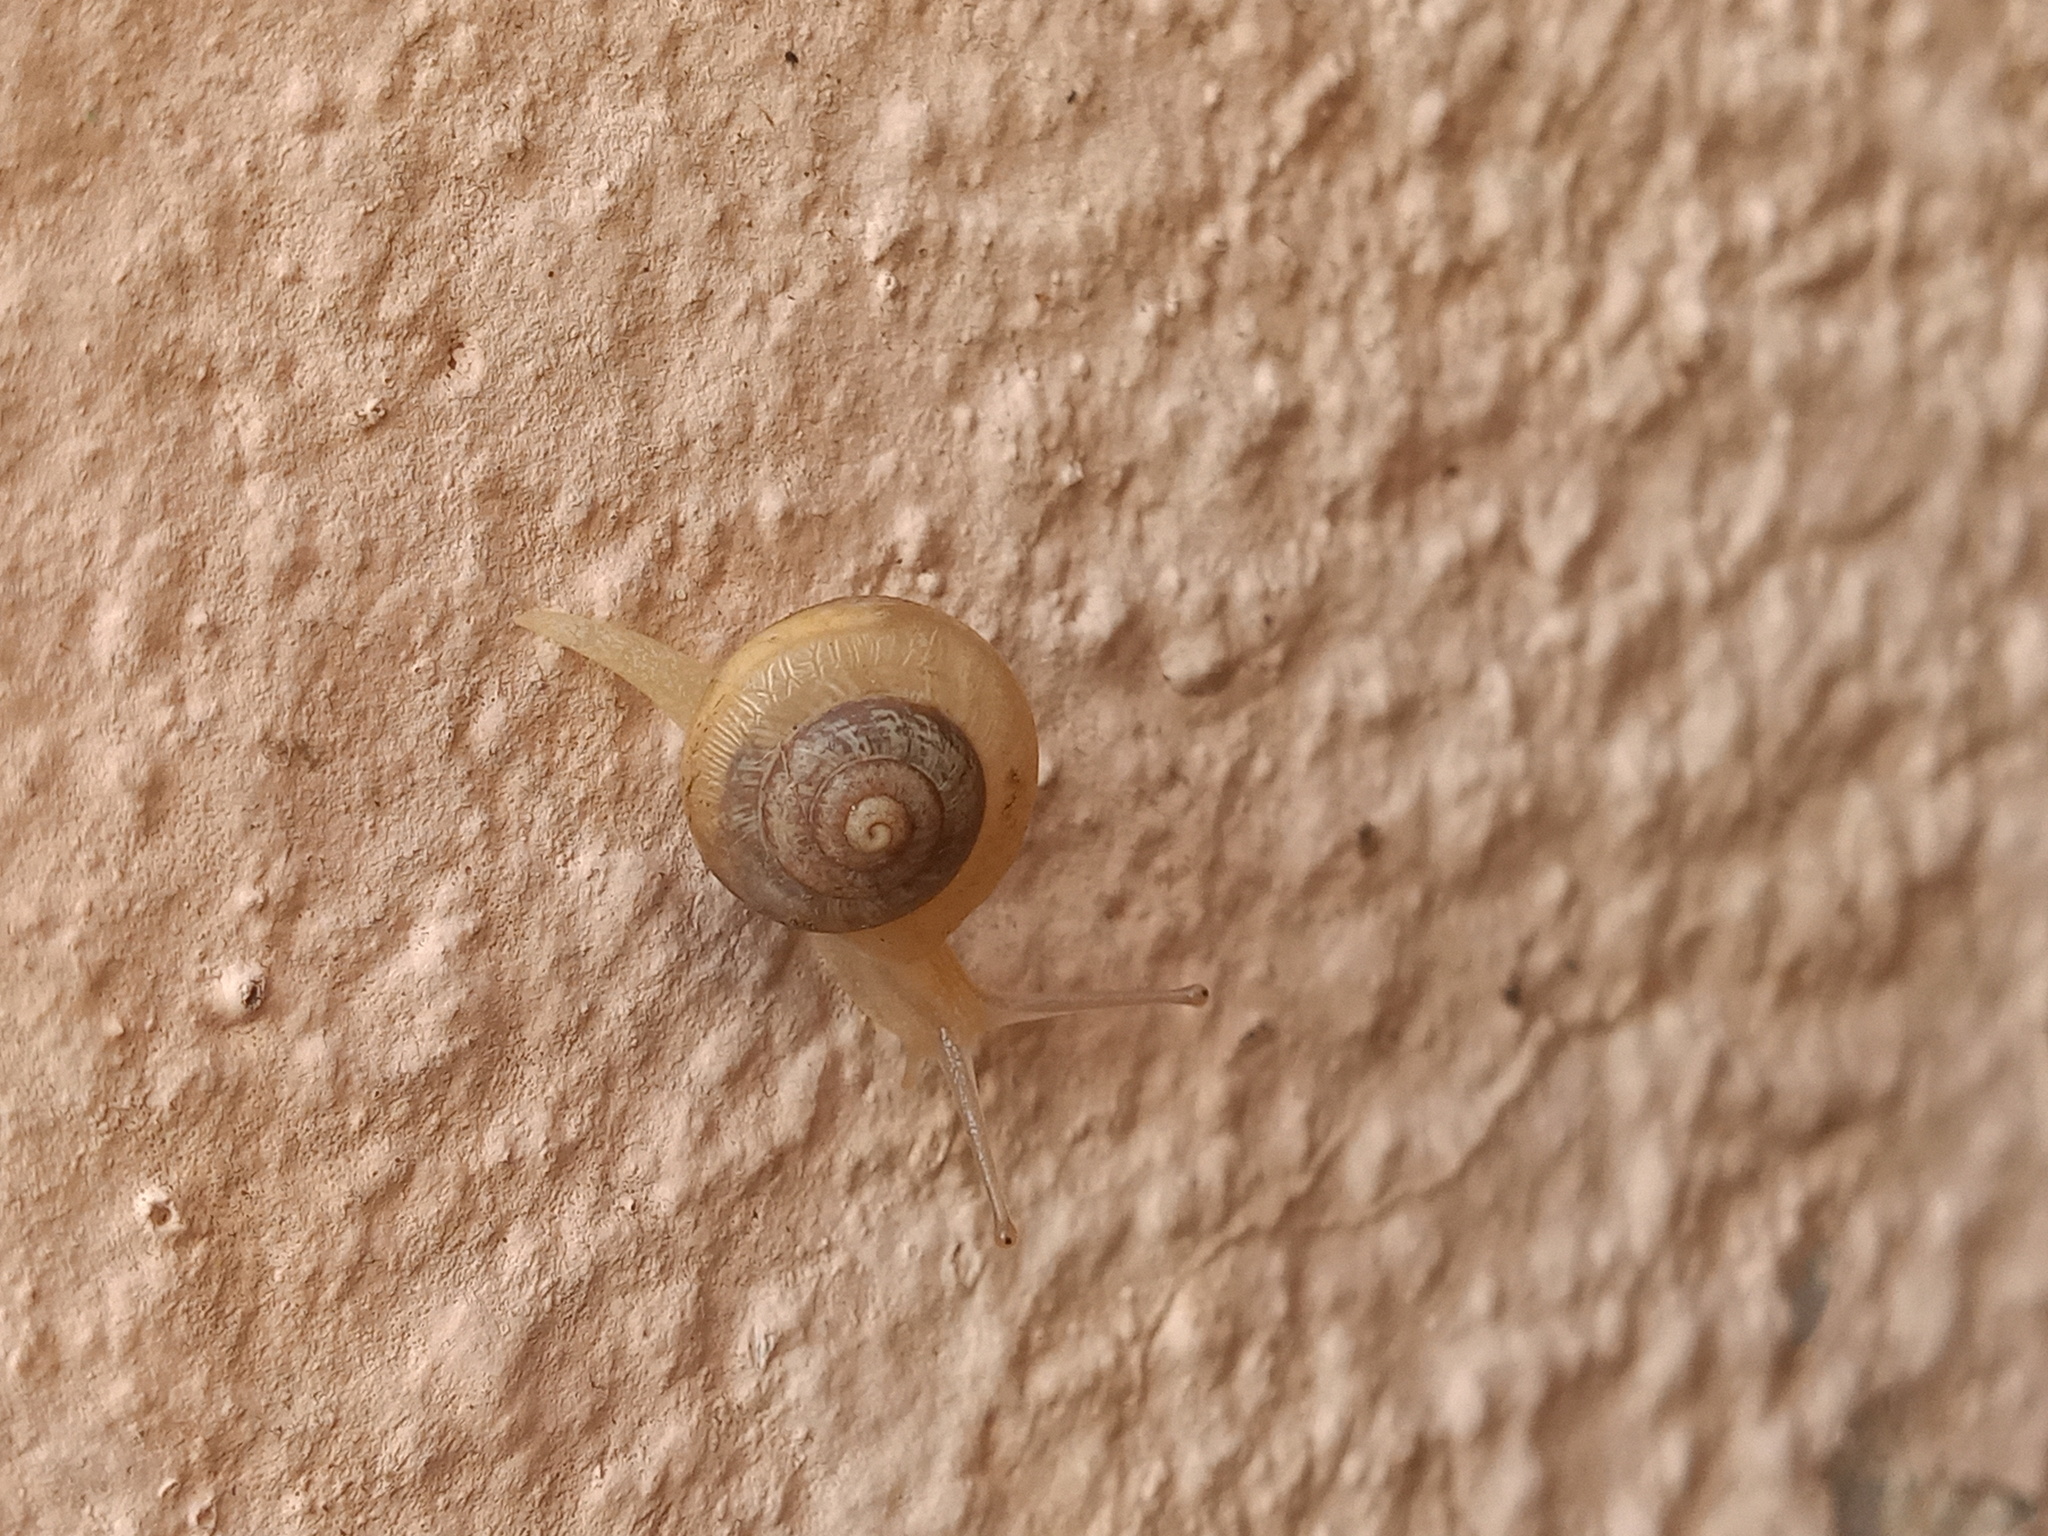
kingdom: Animalia
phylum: Mollusca
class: Gastropoda
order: Stylommatophora
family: Camaenidae
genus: Bradybaena
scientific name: Bradybaena similaris
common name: Asian trampsnail
